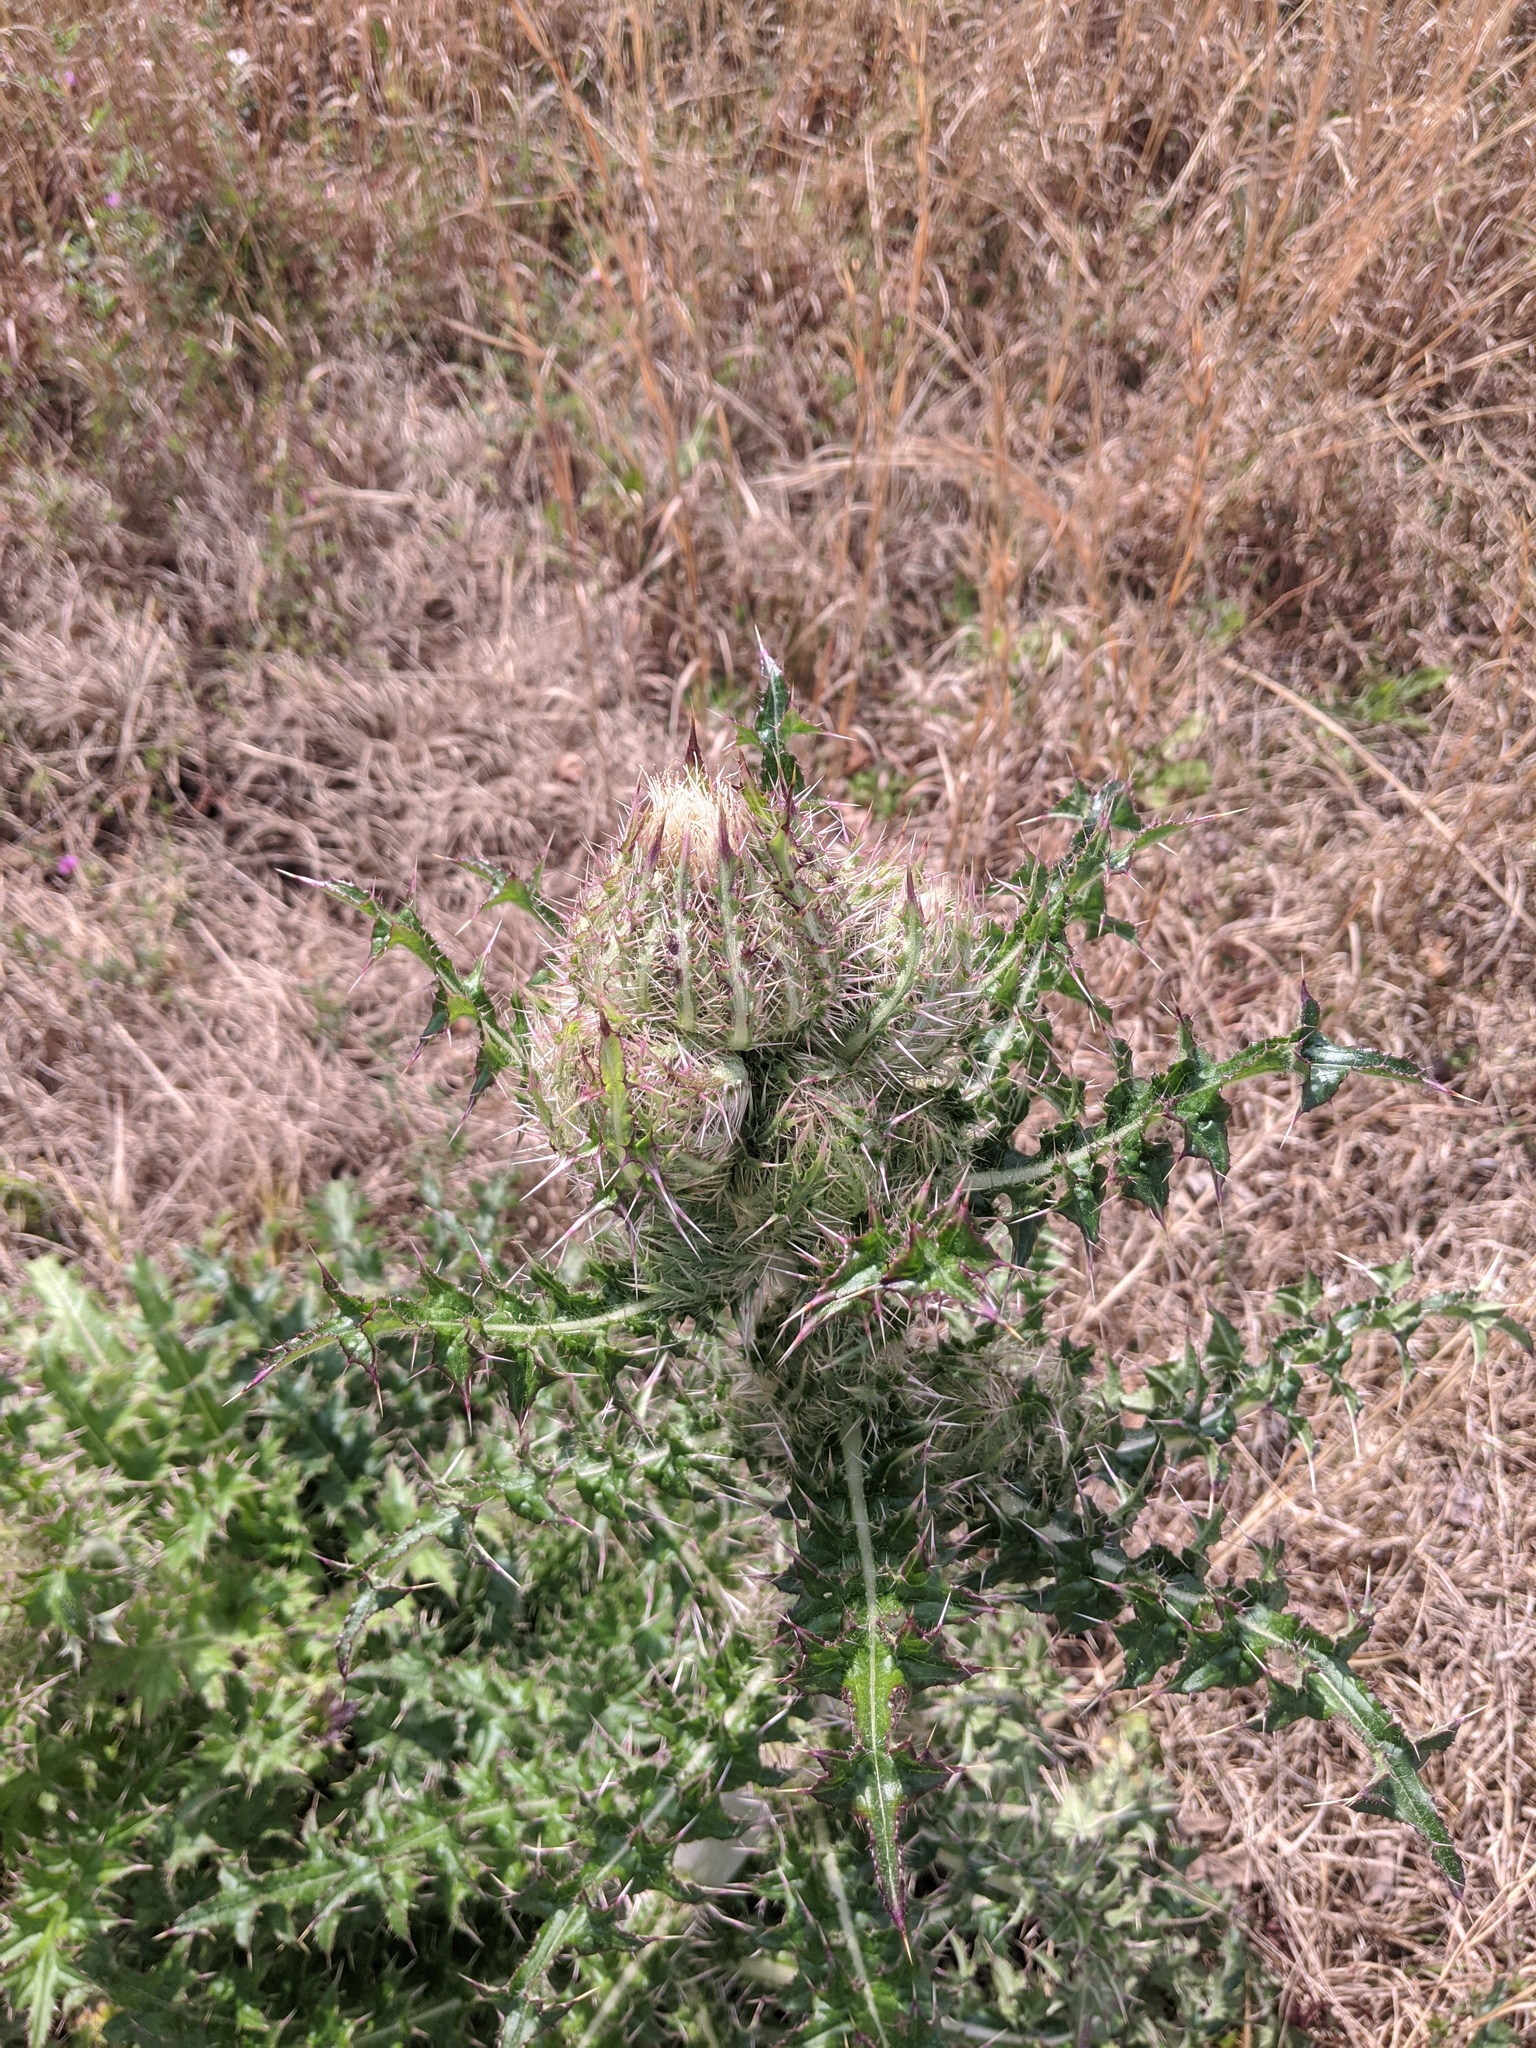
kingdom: Plantae
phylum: Tracheophyta
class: Magnoliopsida
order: Asterales
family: Asteraceae
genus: Cirsium
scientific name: Cirsium horridulum
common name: Bristly thistle
